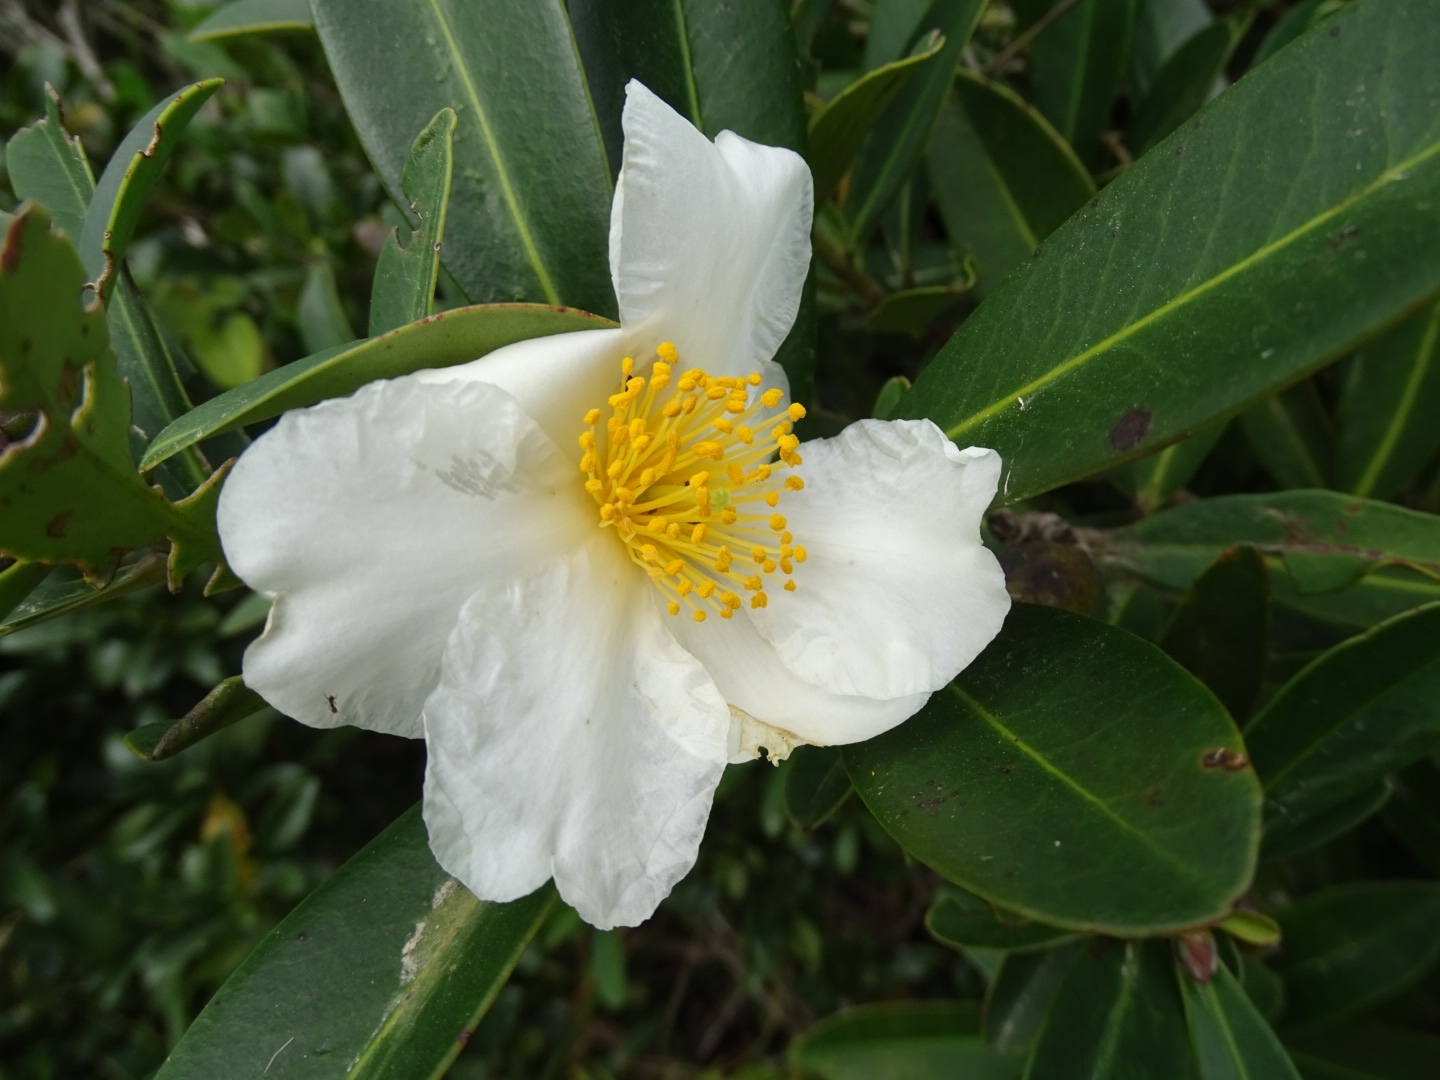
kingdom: Plantae
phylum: Tracheophyta
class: Magnoliopsida
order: Ericales
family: Theaceae
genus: Polyspora
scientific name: Polyspora axillaris
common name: Fried egg tree
